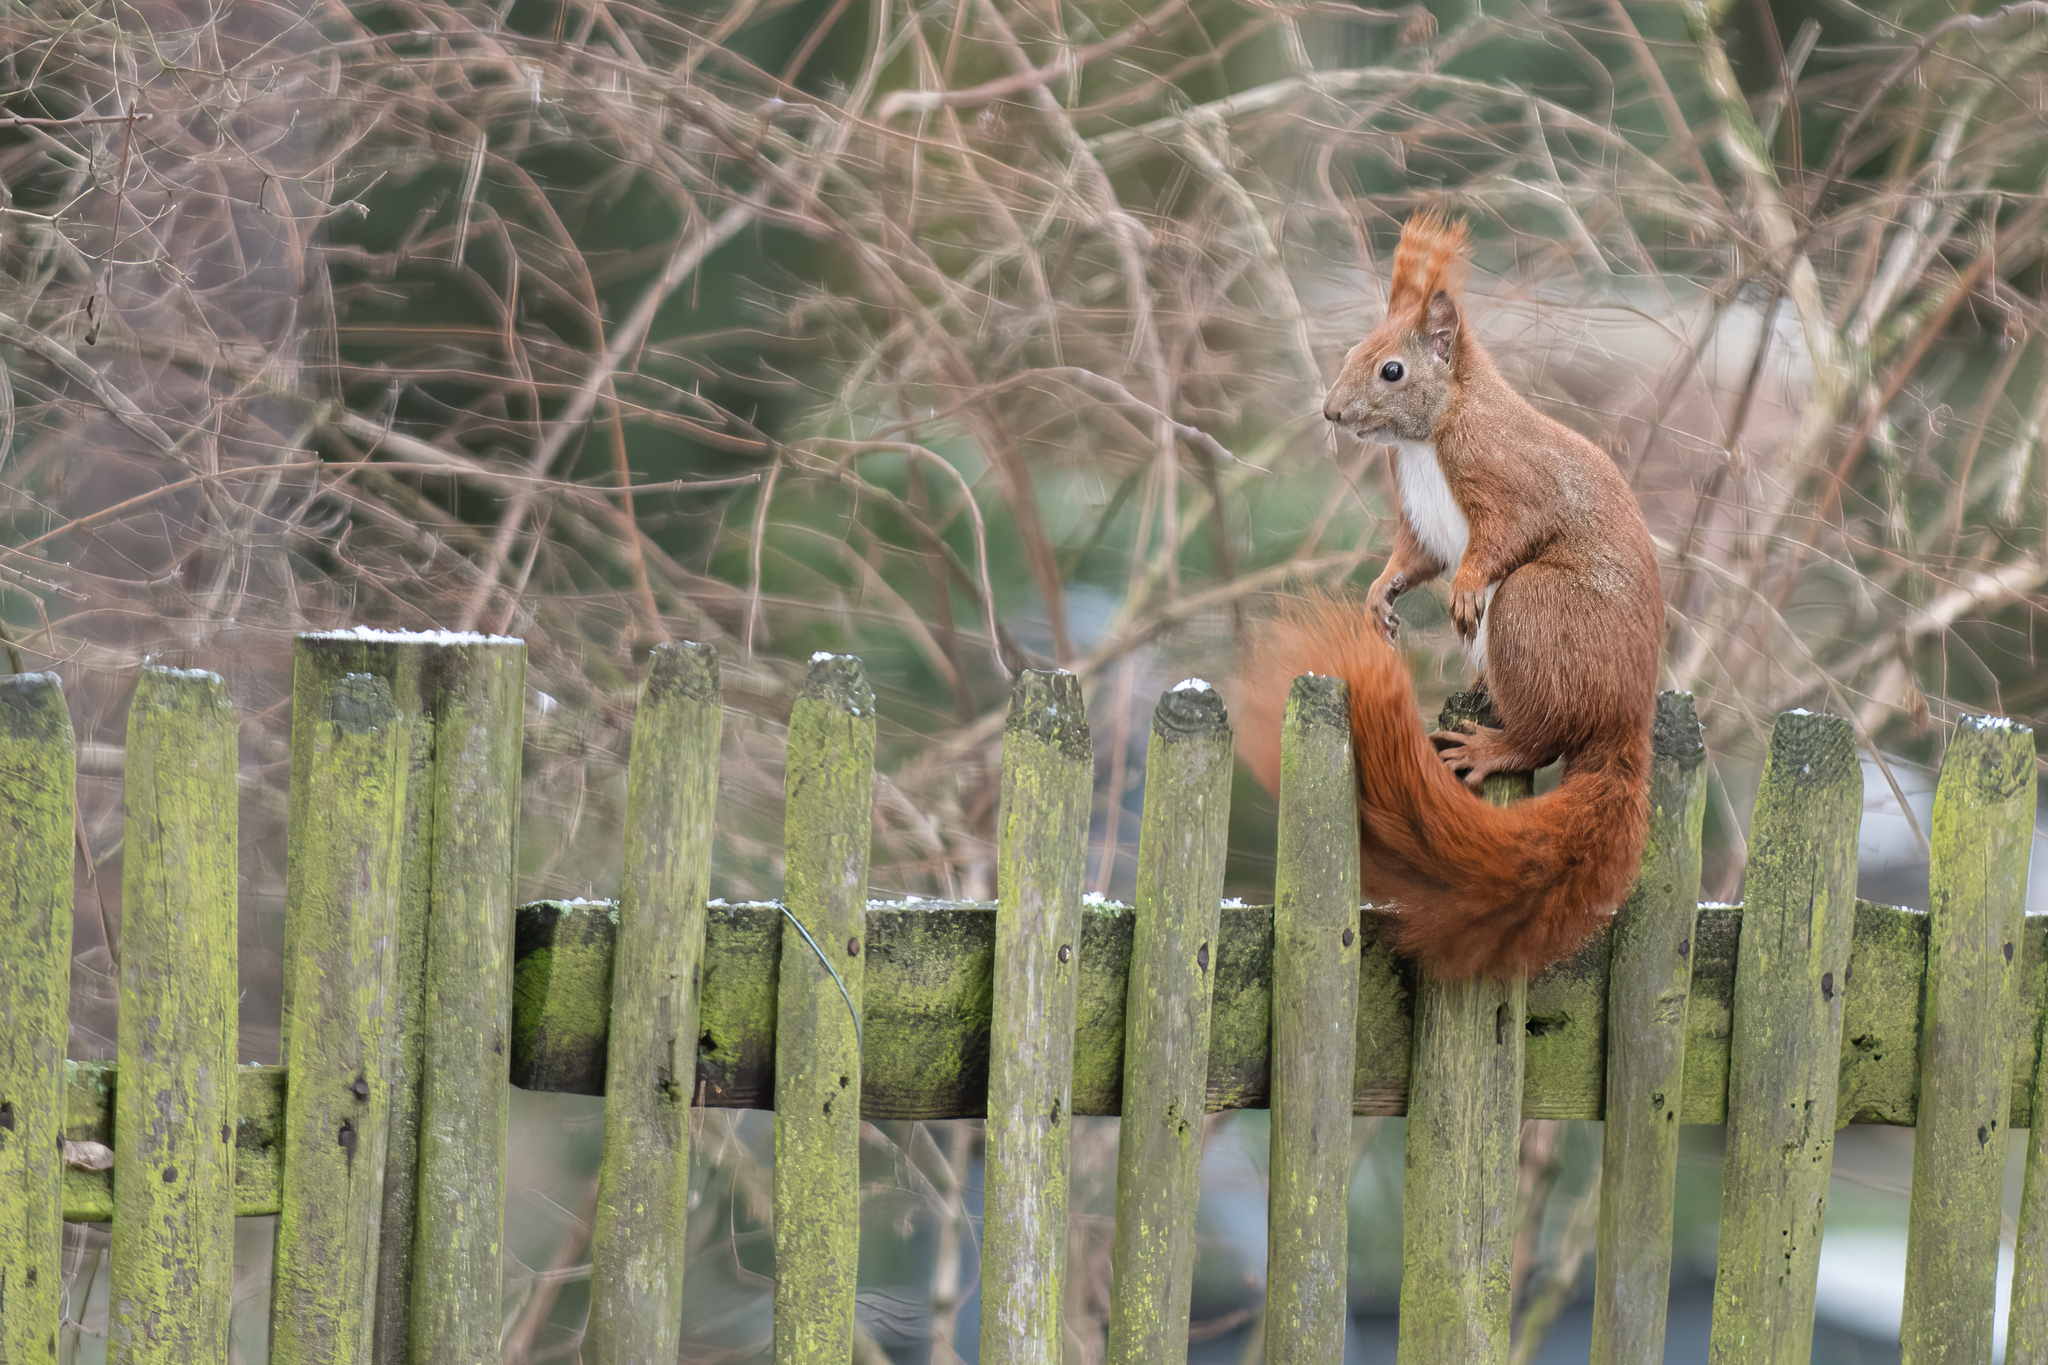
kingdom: Animalia
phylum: Chordata
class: Mammalia
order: Rodentia
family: Sciuridae
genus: Sciurus
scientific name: Sciurus vulgaris
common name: Eurasian red squirrel
